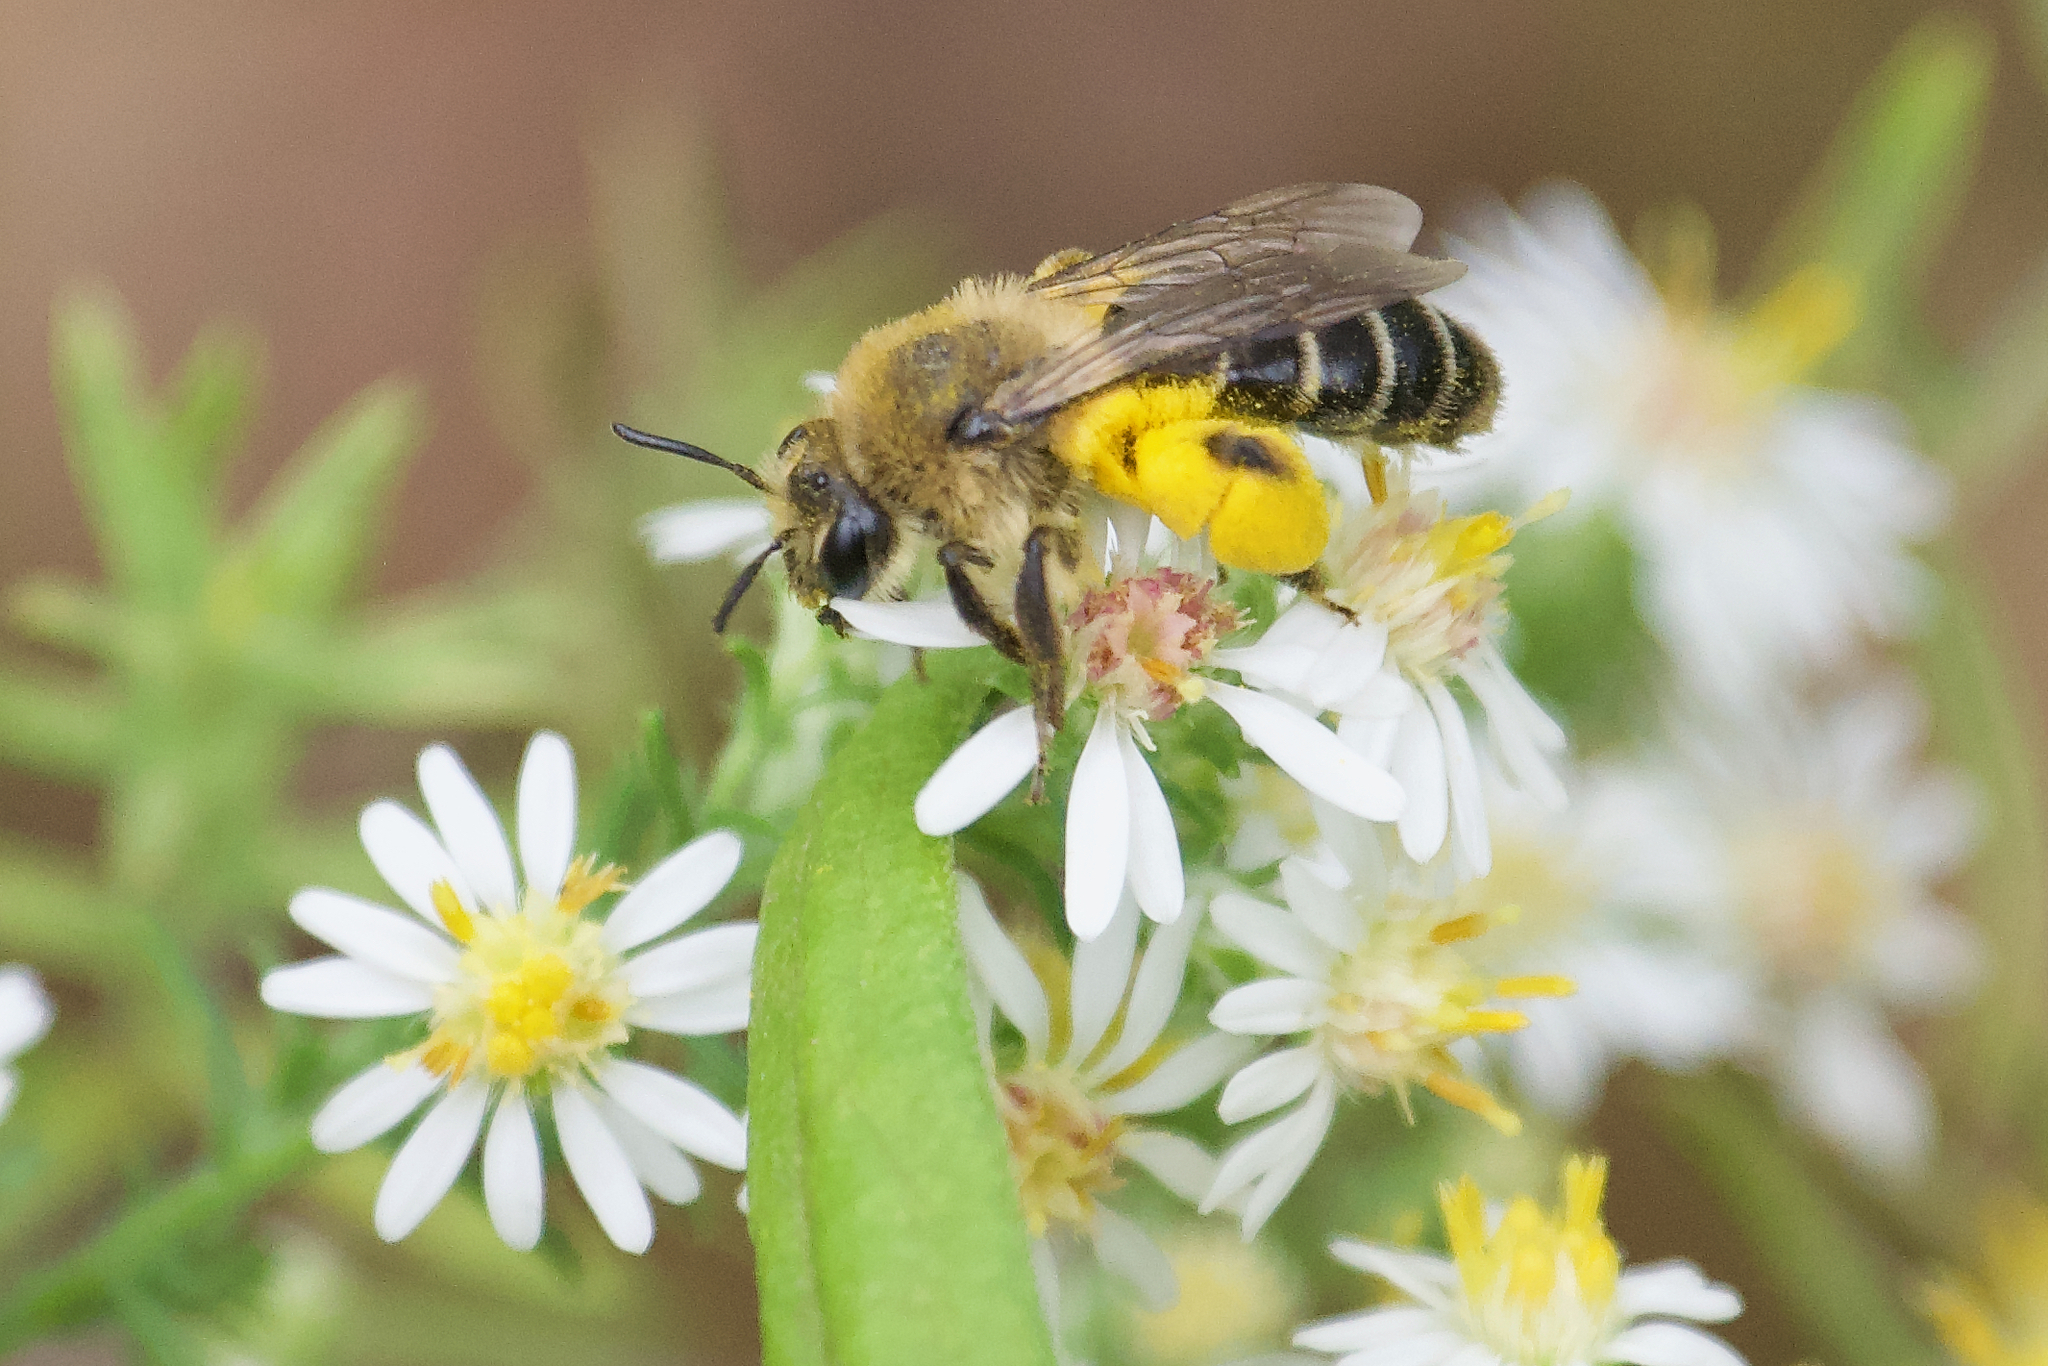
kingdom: Animalia
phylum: Arthropoda
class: Insecta
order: Hymenoptera
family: Andrenidae
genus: Andrena
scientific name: Andrena asteris
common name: Aster mining bee
